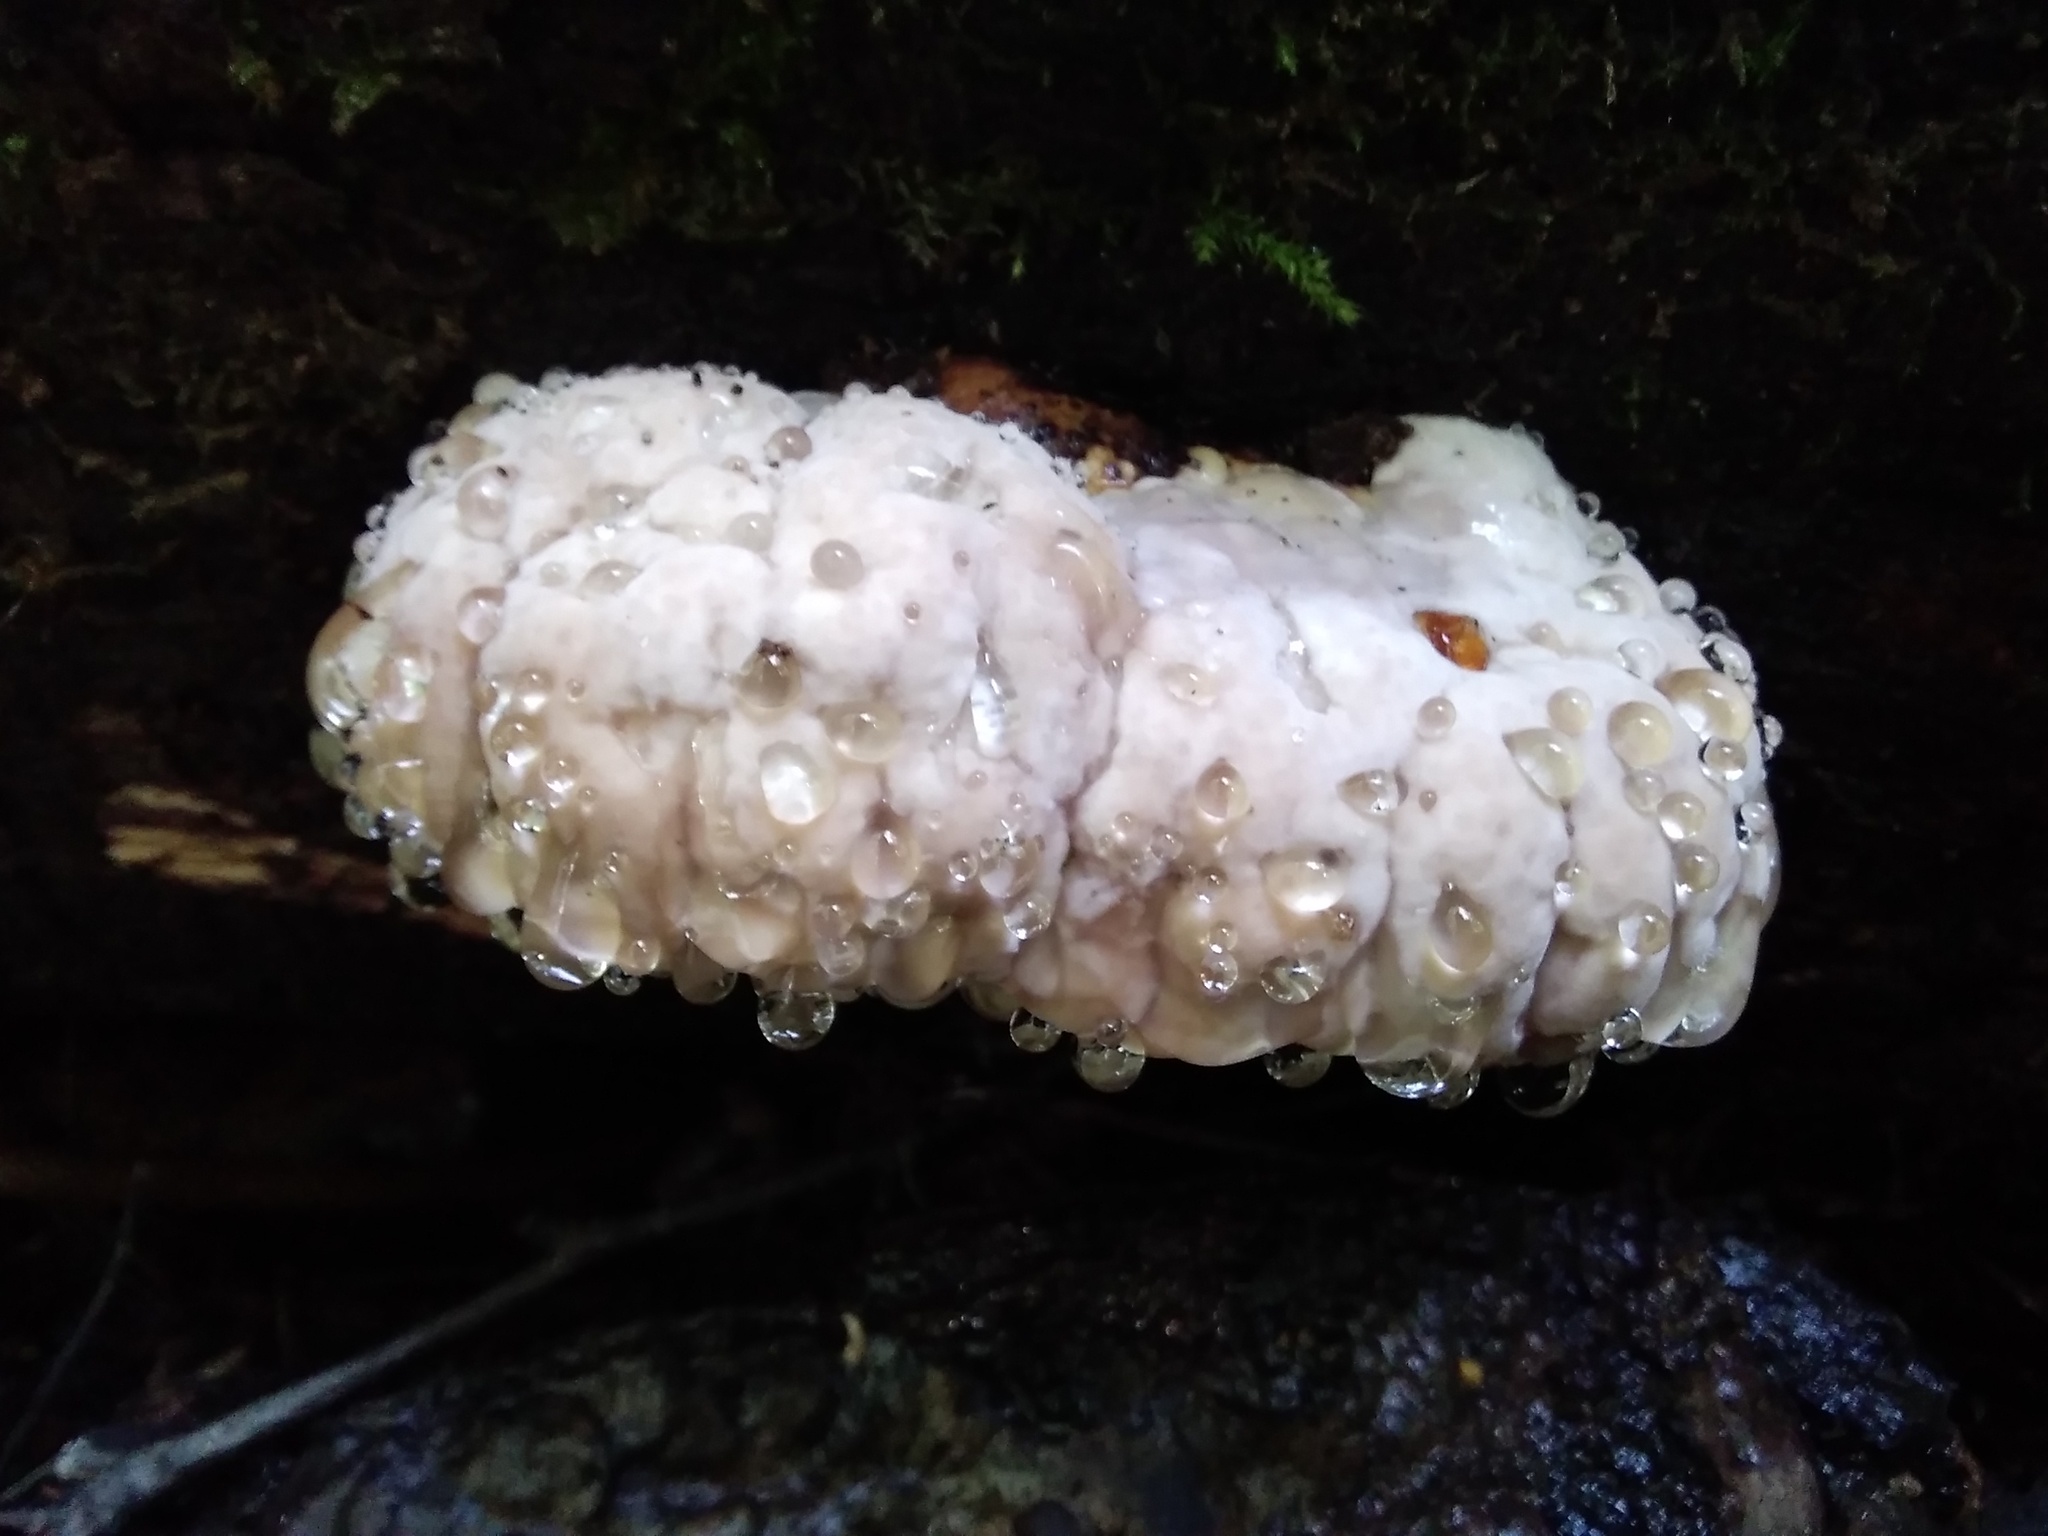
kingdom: Fungi
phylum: Basidiomycota
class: Agaricomycetes
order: Polyporales
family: Fomitopsidaceae
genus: Fomitopsis
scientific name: Fomitopsis pinicola
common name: Red-belted bracket
